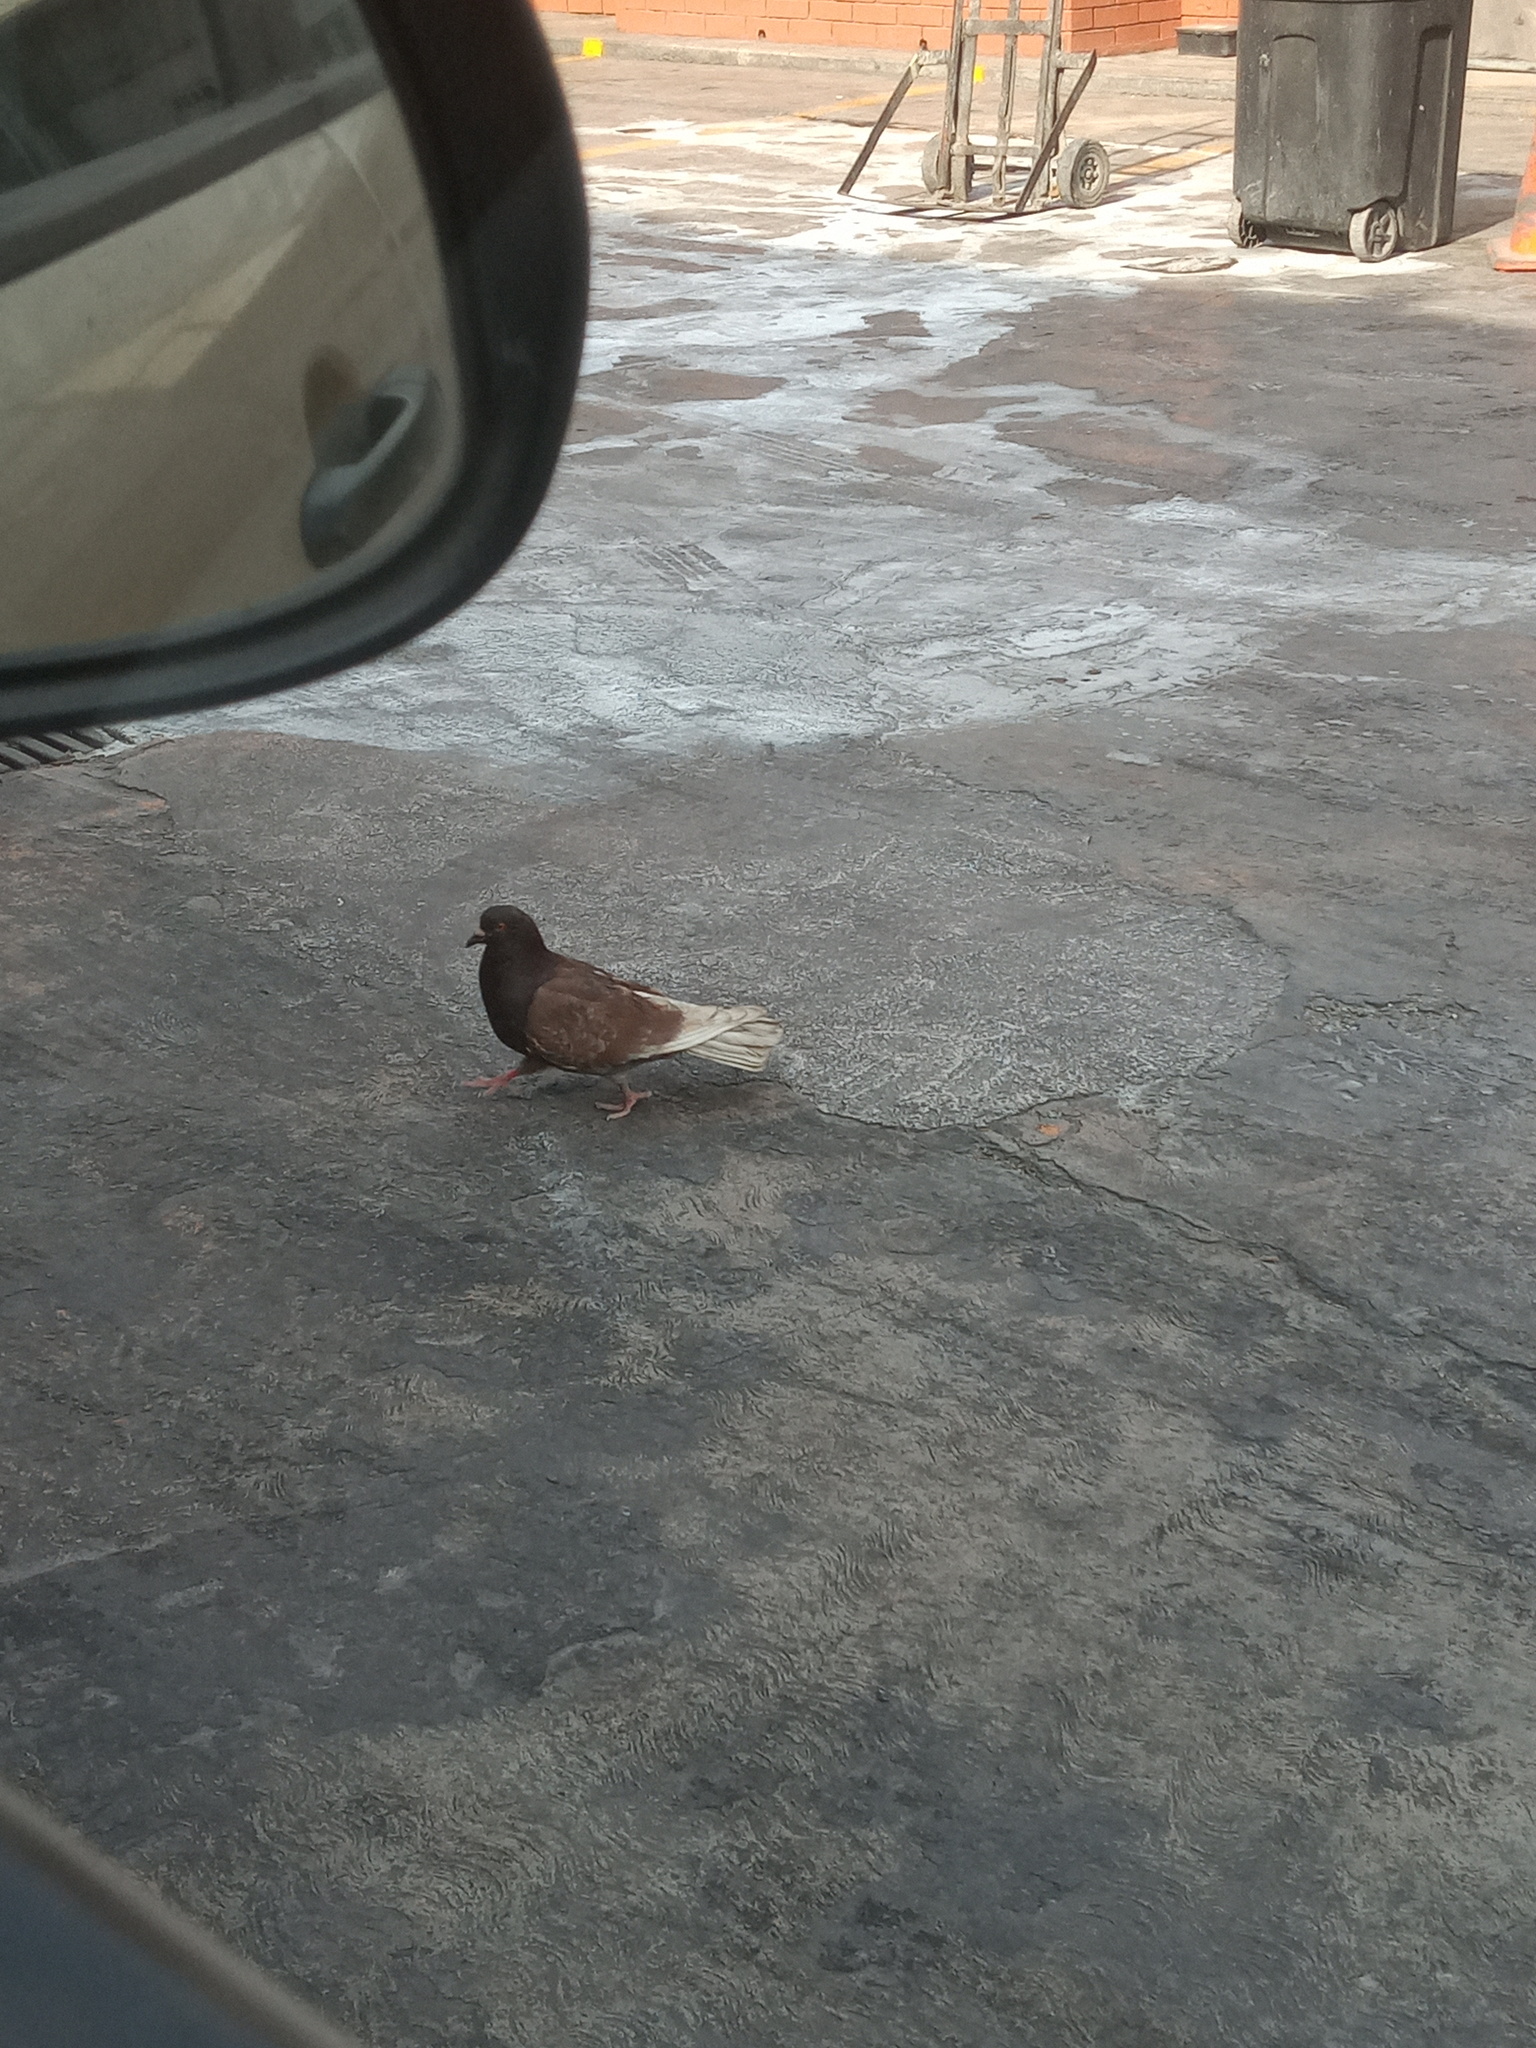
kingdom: Animalia
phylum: Chordata
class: Aves
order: Columbiformes
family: Columbidae
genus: Columba
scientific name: Columba livia
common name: Rock pigeon
